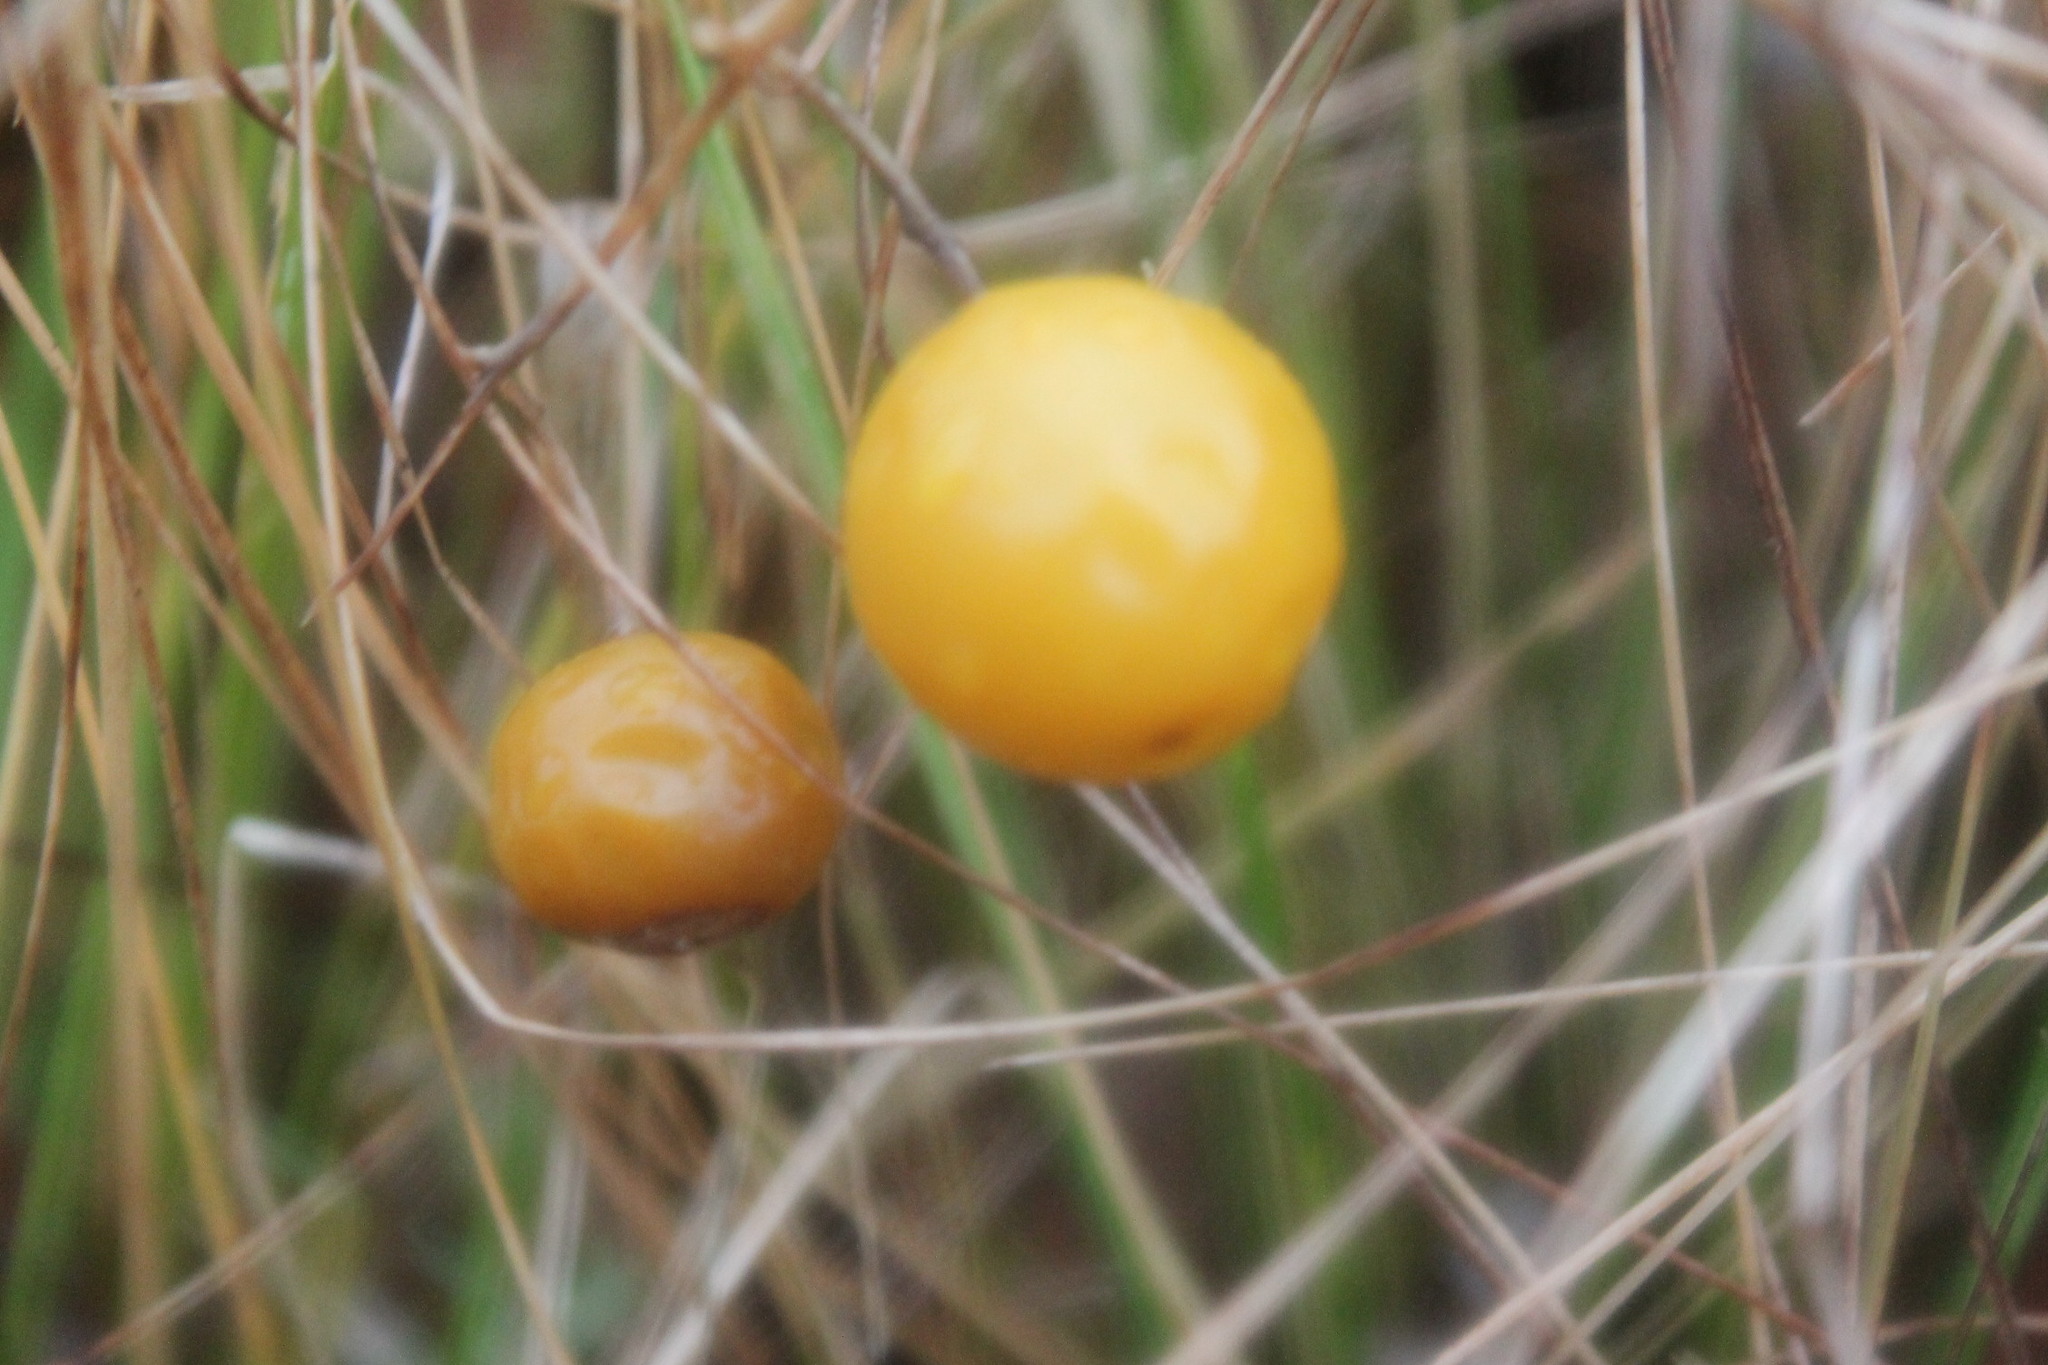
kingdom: Plantae
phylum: Tracheophyta
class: Magnoliopsida
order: Solanales
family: Solanaceae
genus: Solanum
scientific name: Solanum carolinense
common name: Horse-nettle
